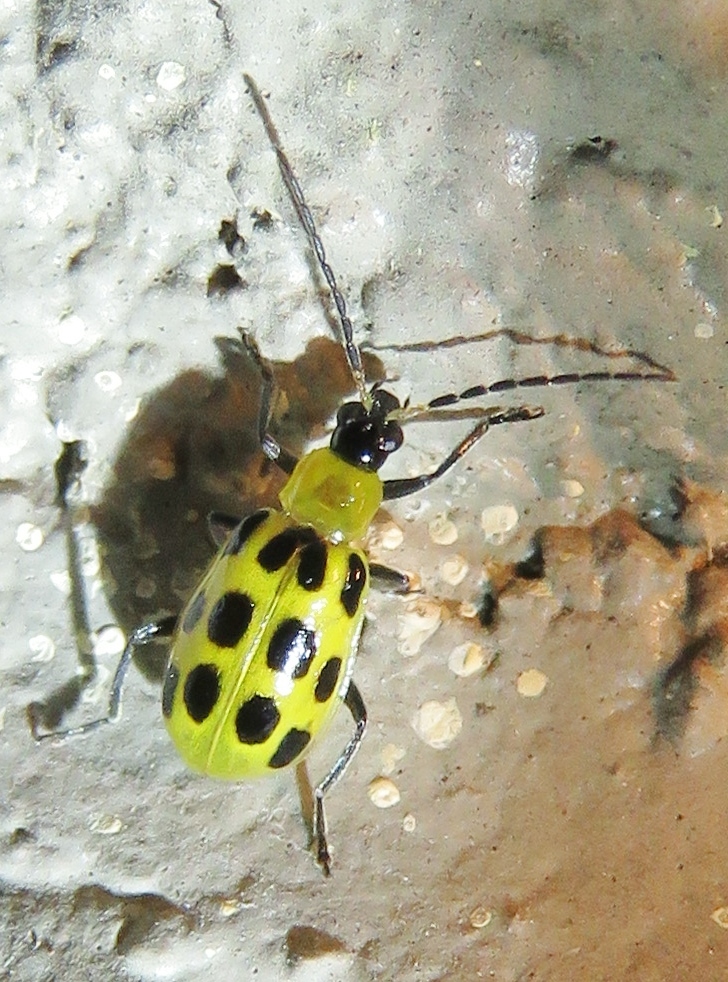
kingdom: Animalia
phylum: Arthropoda
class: Insecta
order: Coleoptera
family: Chrysomelidae
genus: Diabrotica
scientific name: Diabrotica undecimpunctata
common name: Spotted cucumber beetle
